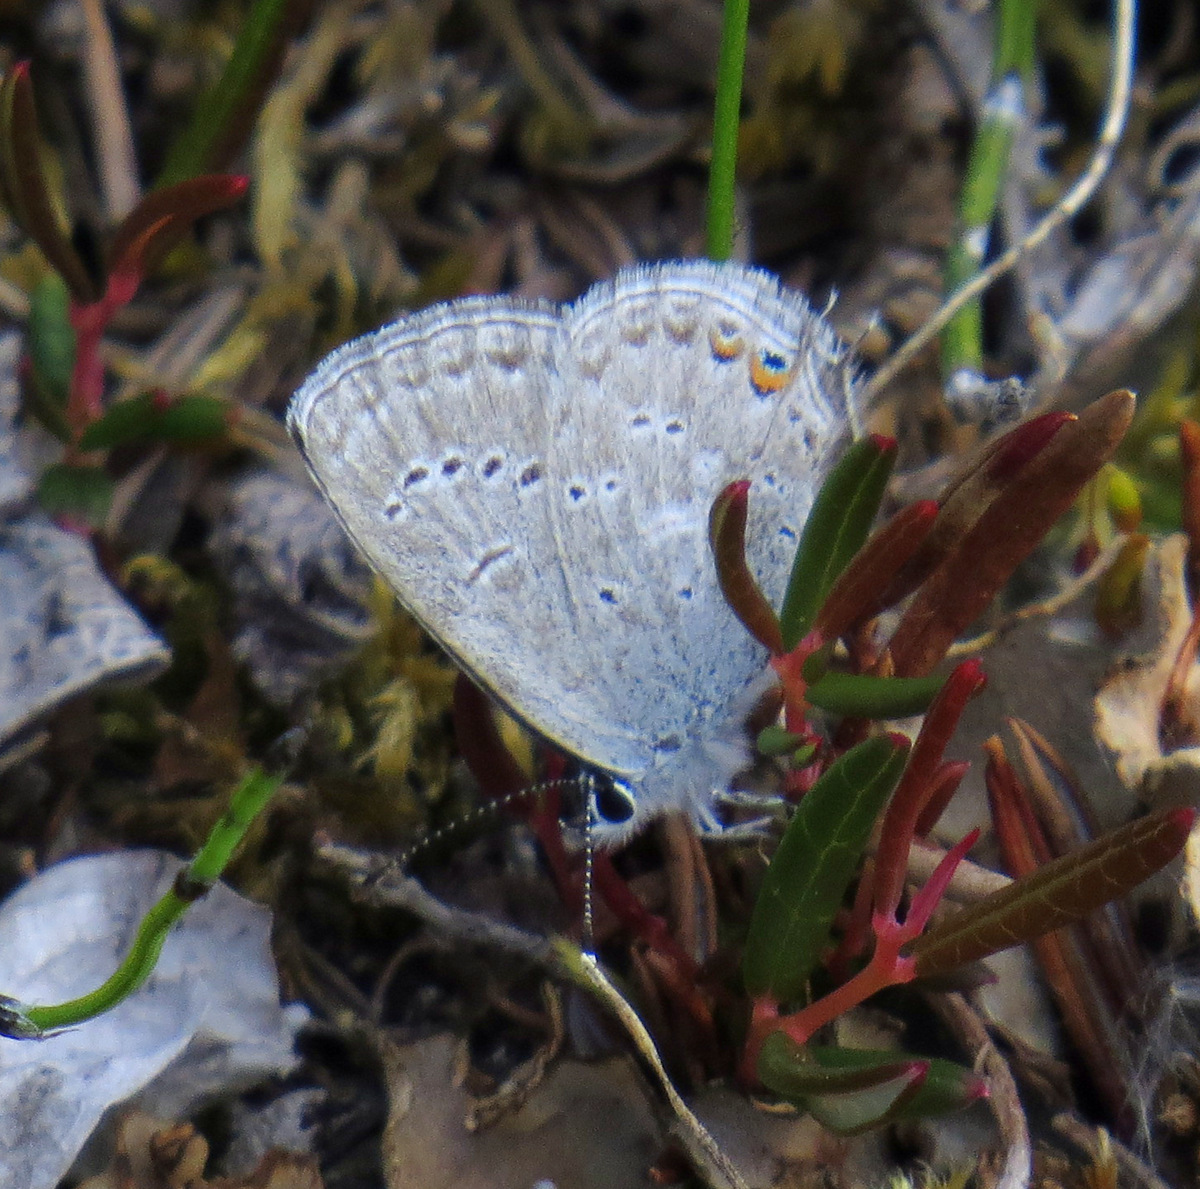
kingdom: Animalia
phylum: Arthropoda
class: Insecta
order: Lepidoptera
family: Lycaenidae
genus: Elkalyce
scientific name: Elkalyce amyntula
